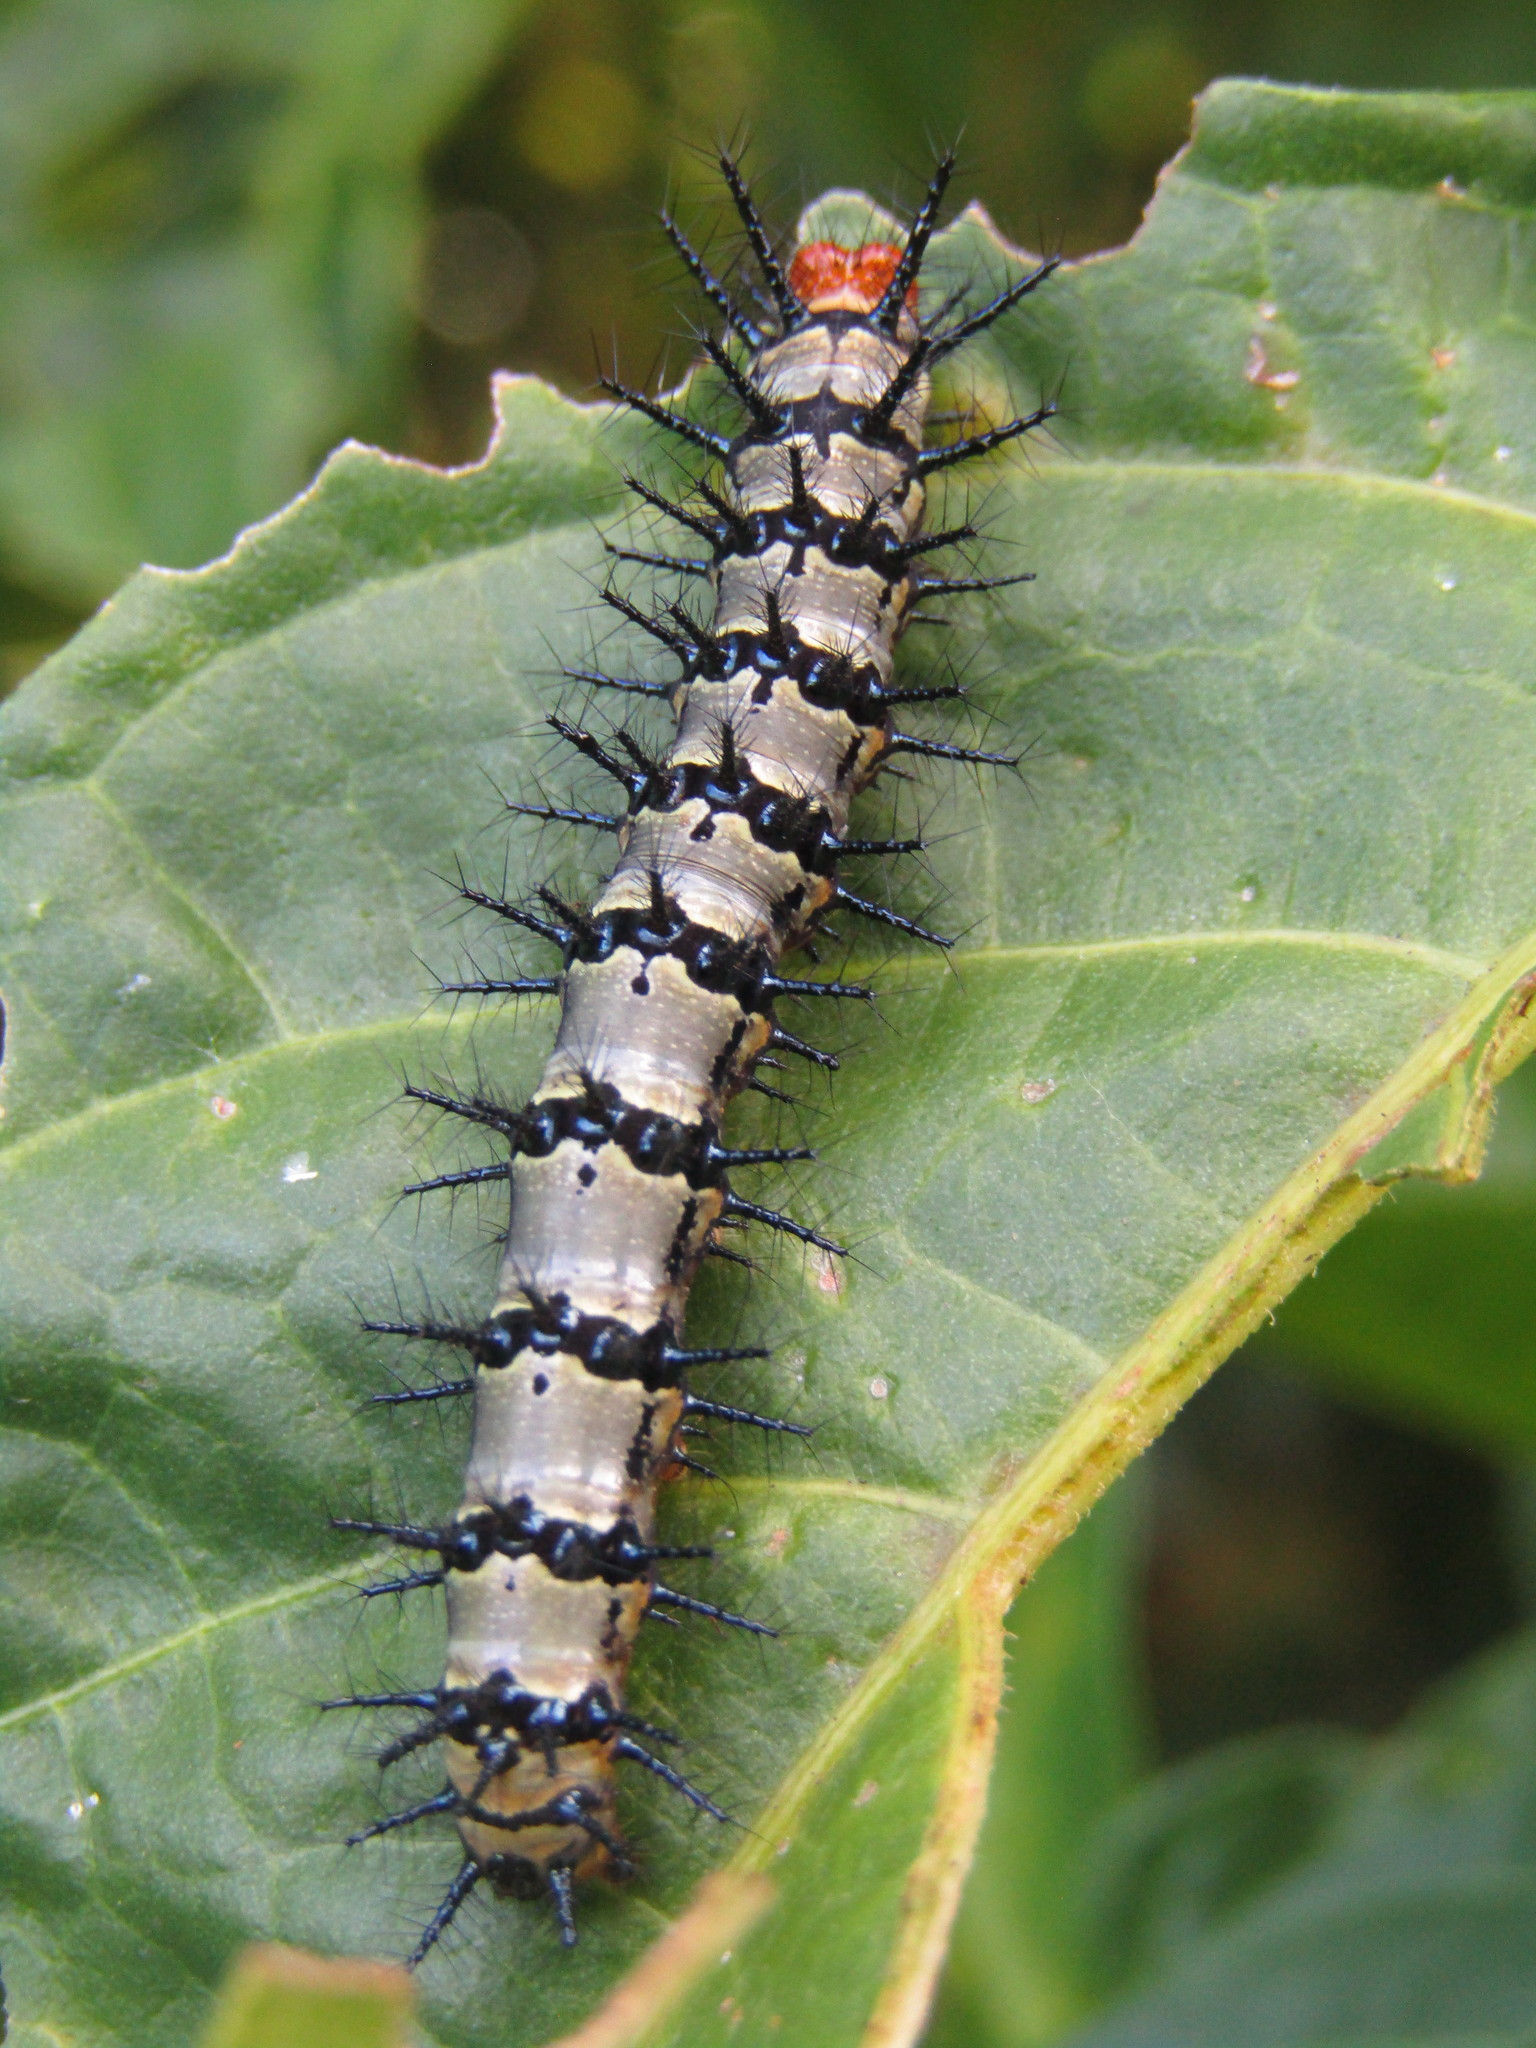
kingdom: Animalia
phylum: Arthropoda
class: Insecta
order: Lepidoptera
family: Nymphalidae
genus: Chlosyne
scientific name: Chlosyne janais
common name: Crimson patch
